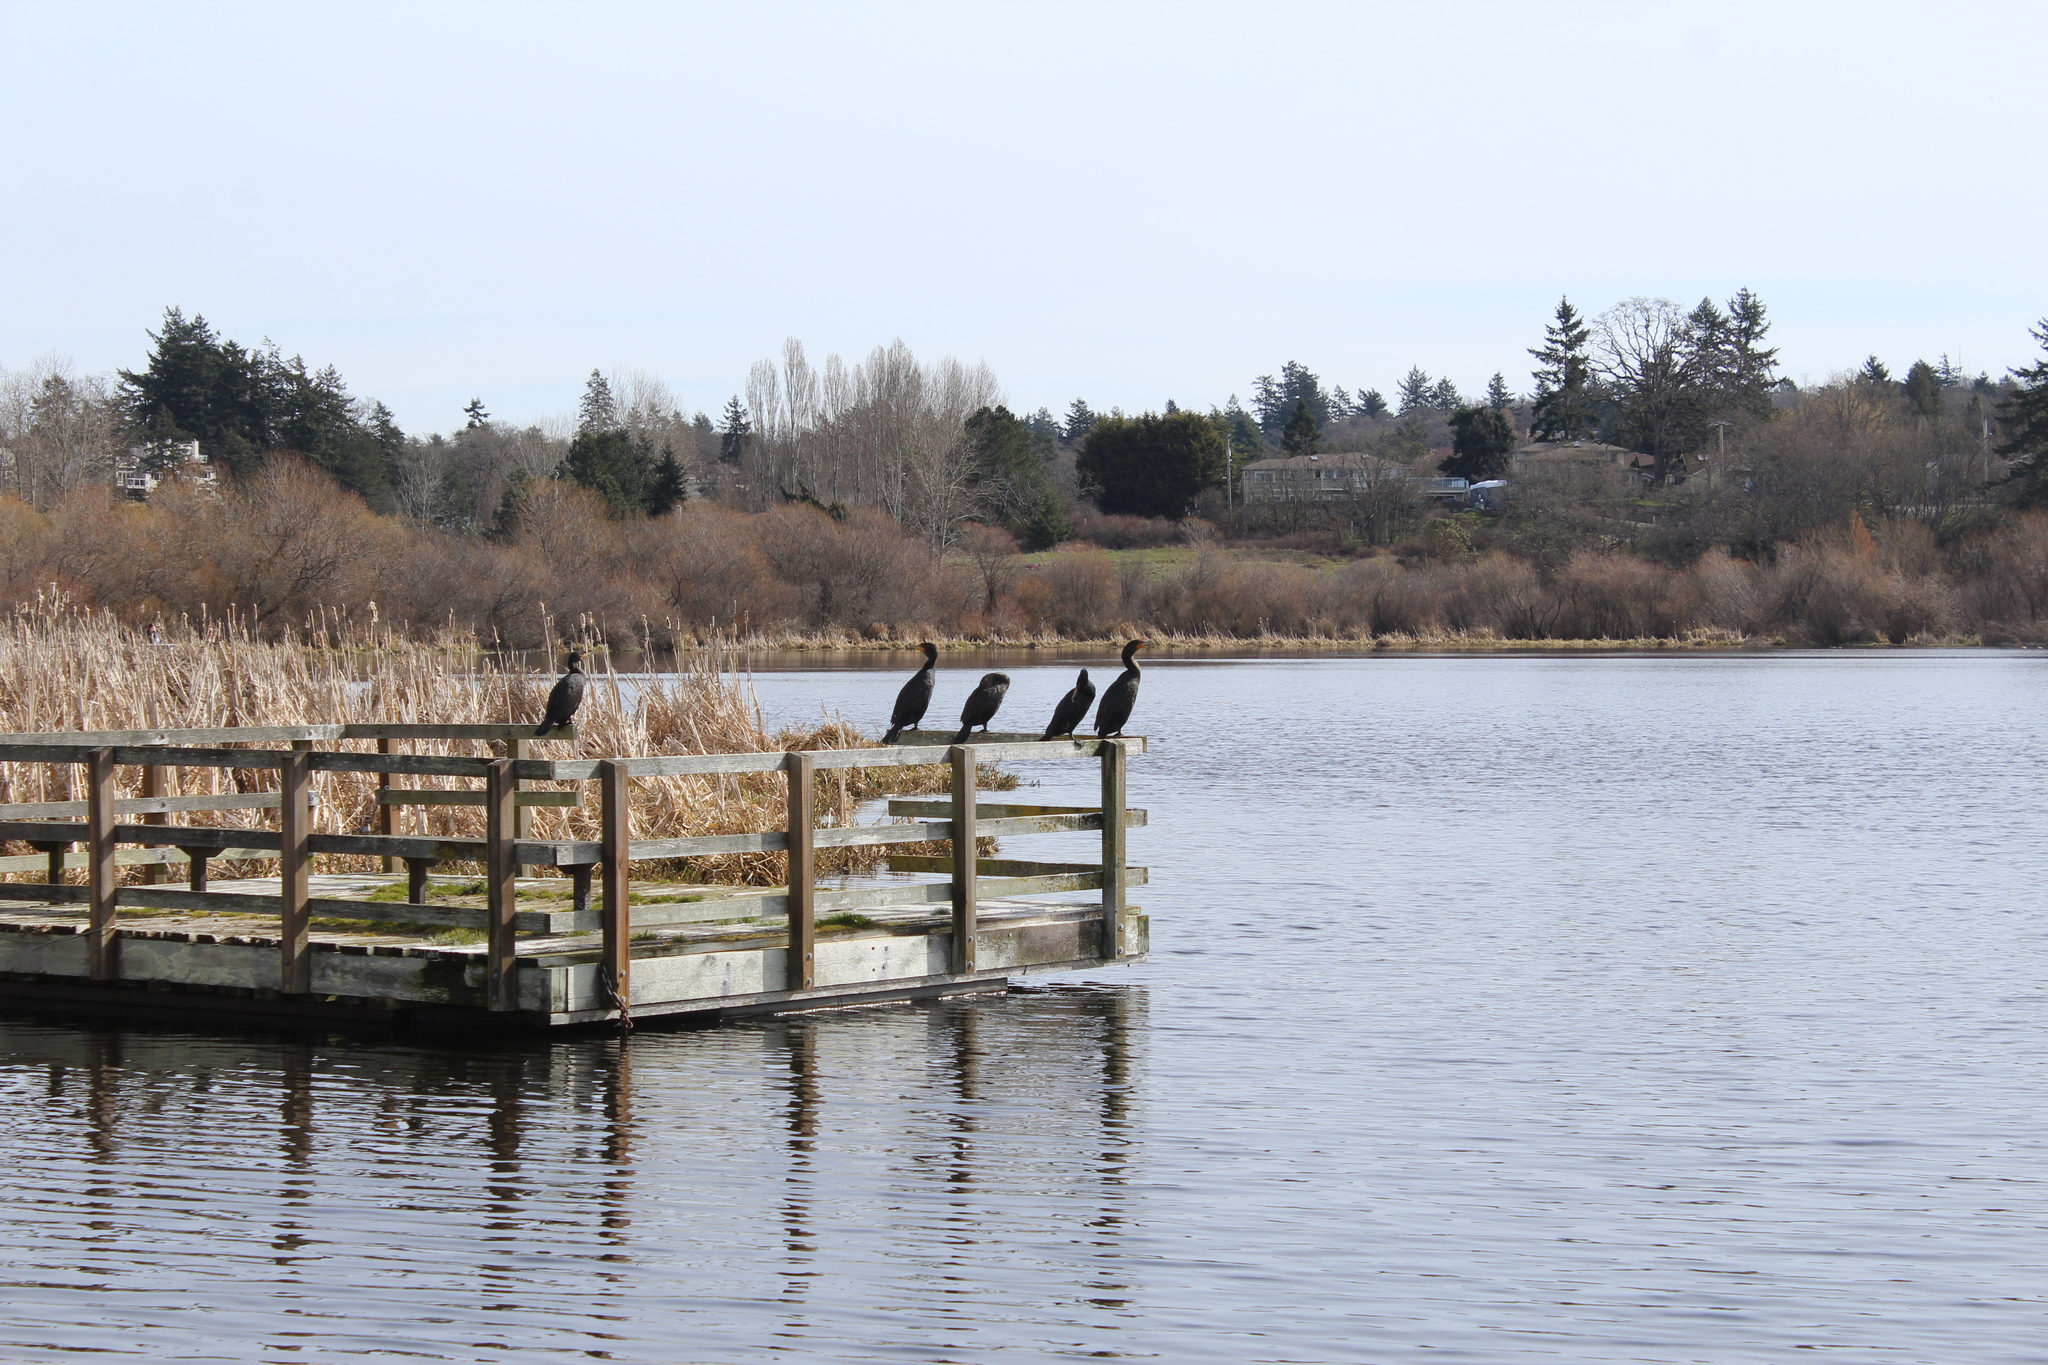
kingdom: Animalia
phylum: Chordata
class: Aves
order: Suliformes
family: Phalacrocoracidae
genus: Phalacrocorax
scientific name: Phalacrocorax auritus
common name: Double-crested cormorant
